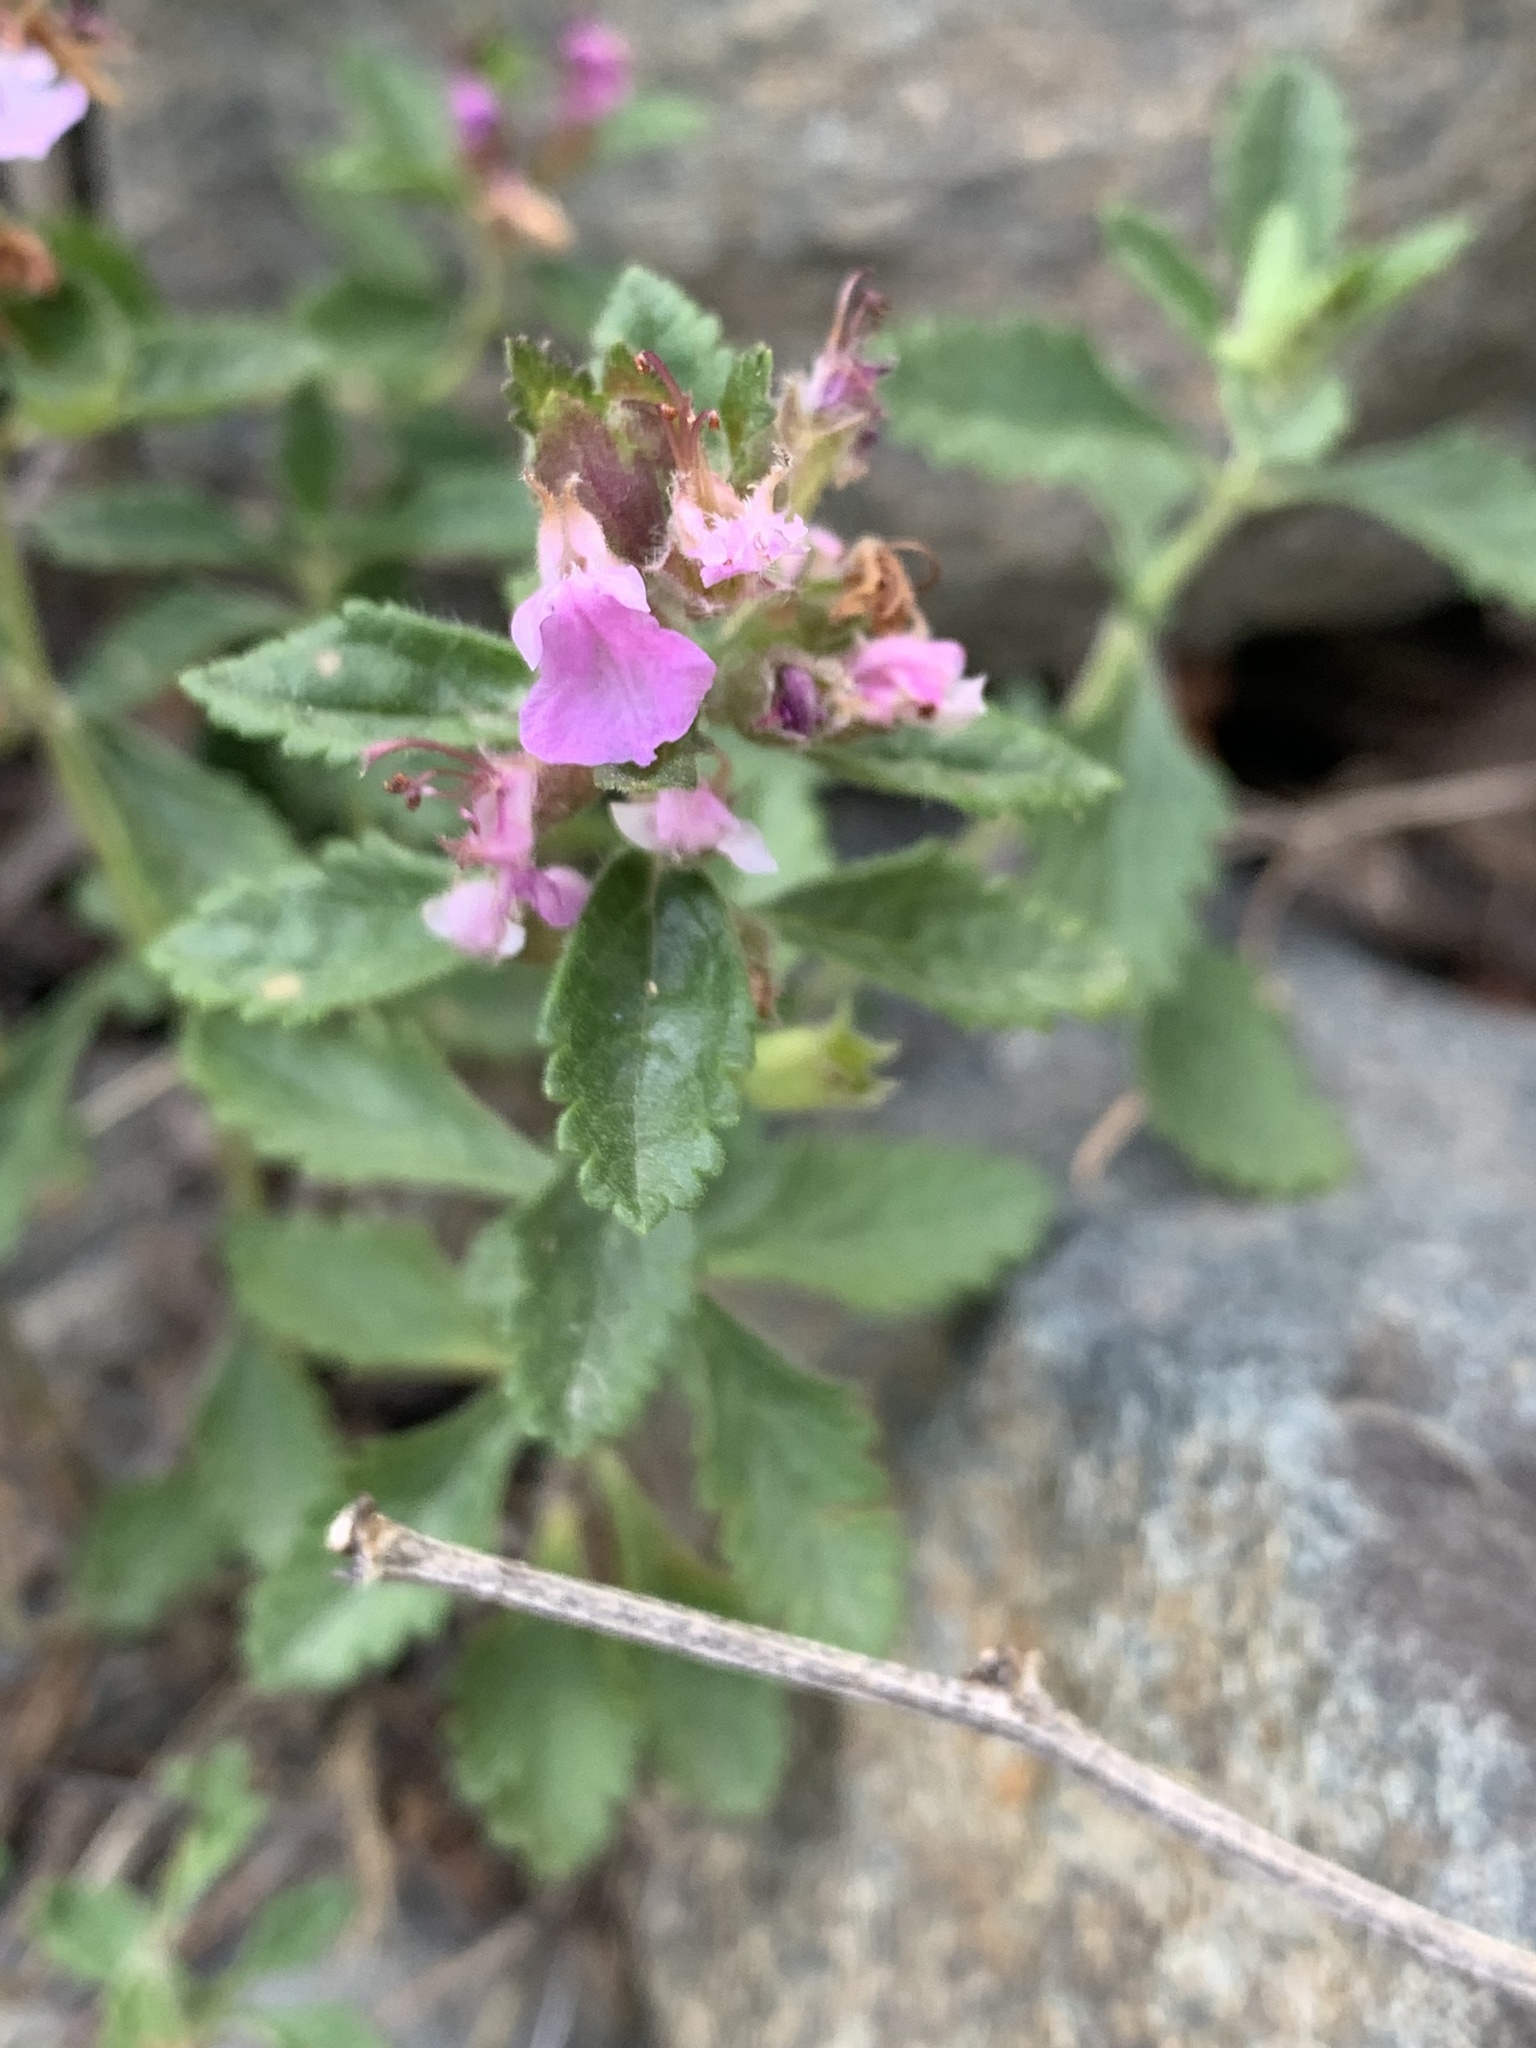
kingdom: Plantae
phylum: Tracheophyta
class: Magnoliopsida
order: Lamiales
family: Lamiaceae
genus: Teucrium
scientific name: Teucrium chamaedrys
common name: Wall germander
